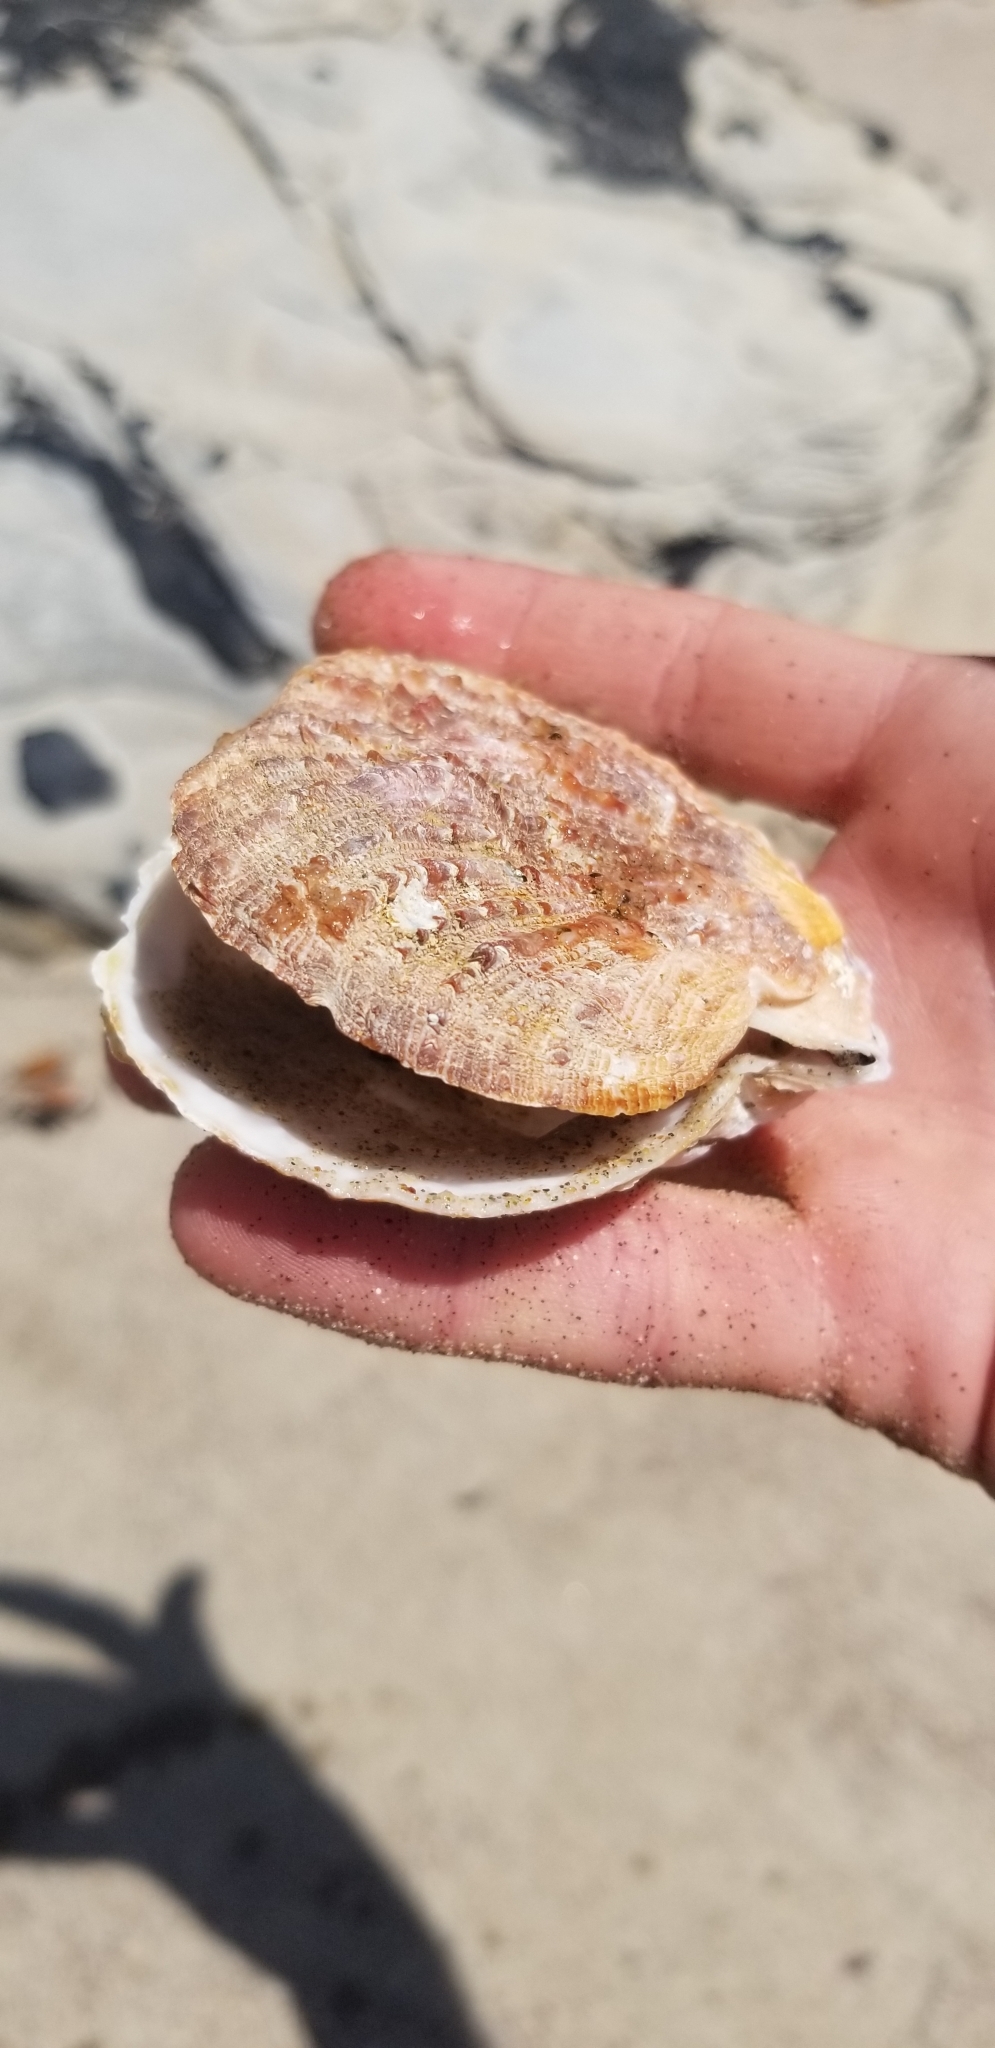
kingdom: Animalia
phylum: Mollusca
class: Bivalvia
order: Pectinida
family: Pectinidae
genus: Crassadoma
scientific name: Crassadoma gigantea
